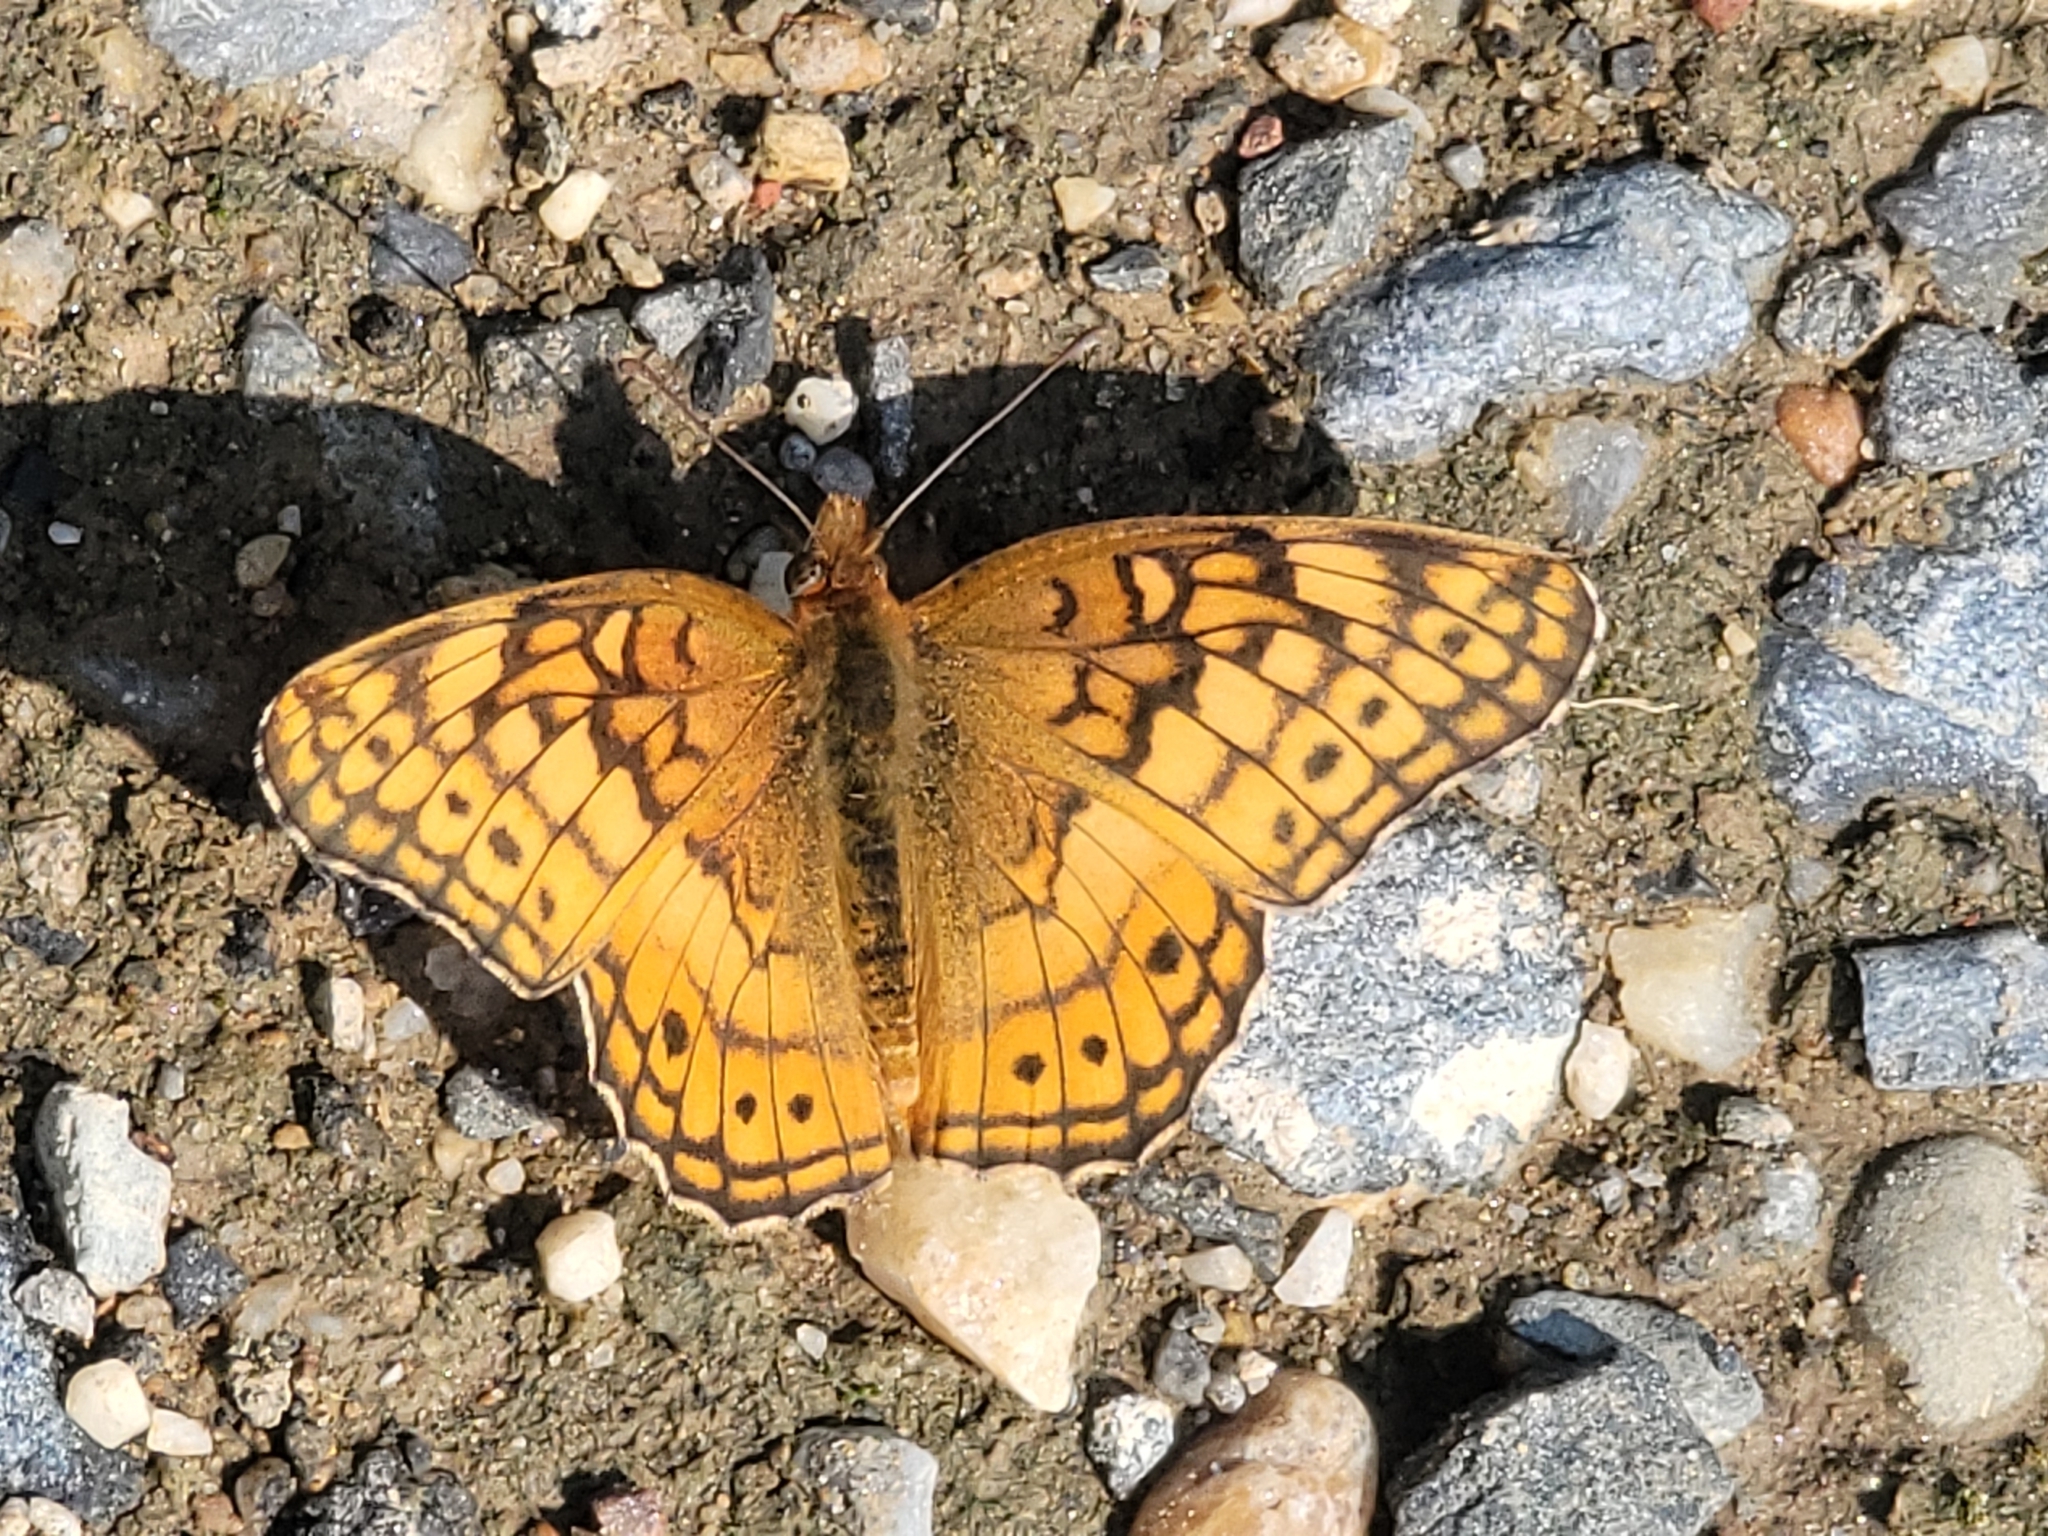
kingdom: Animalia
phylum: Arthropoda
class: Insecta
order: Lepidoptera
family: Nymphalidae
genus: Euptoieta
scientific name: Euptoieta claudia
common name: Variegated fritillary
